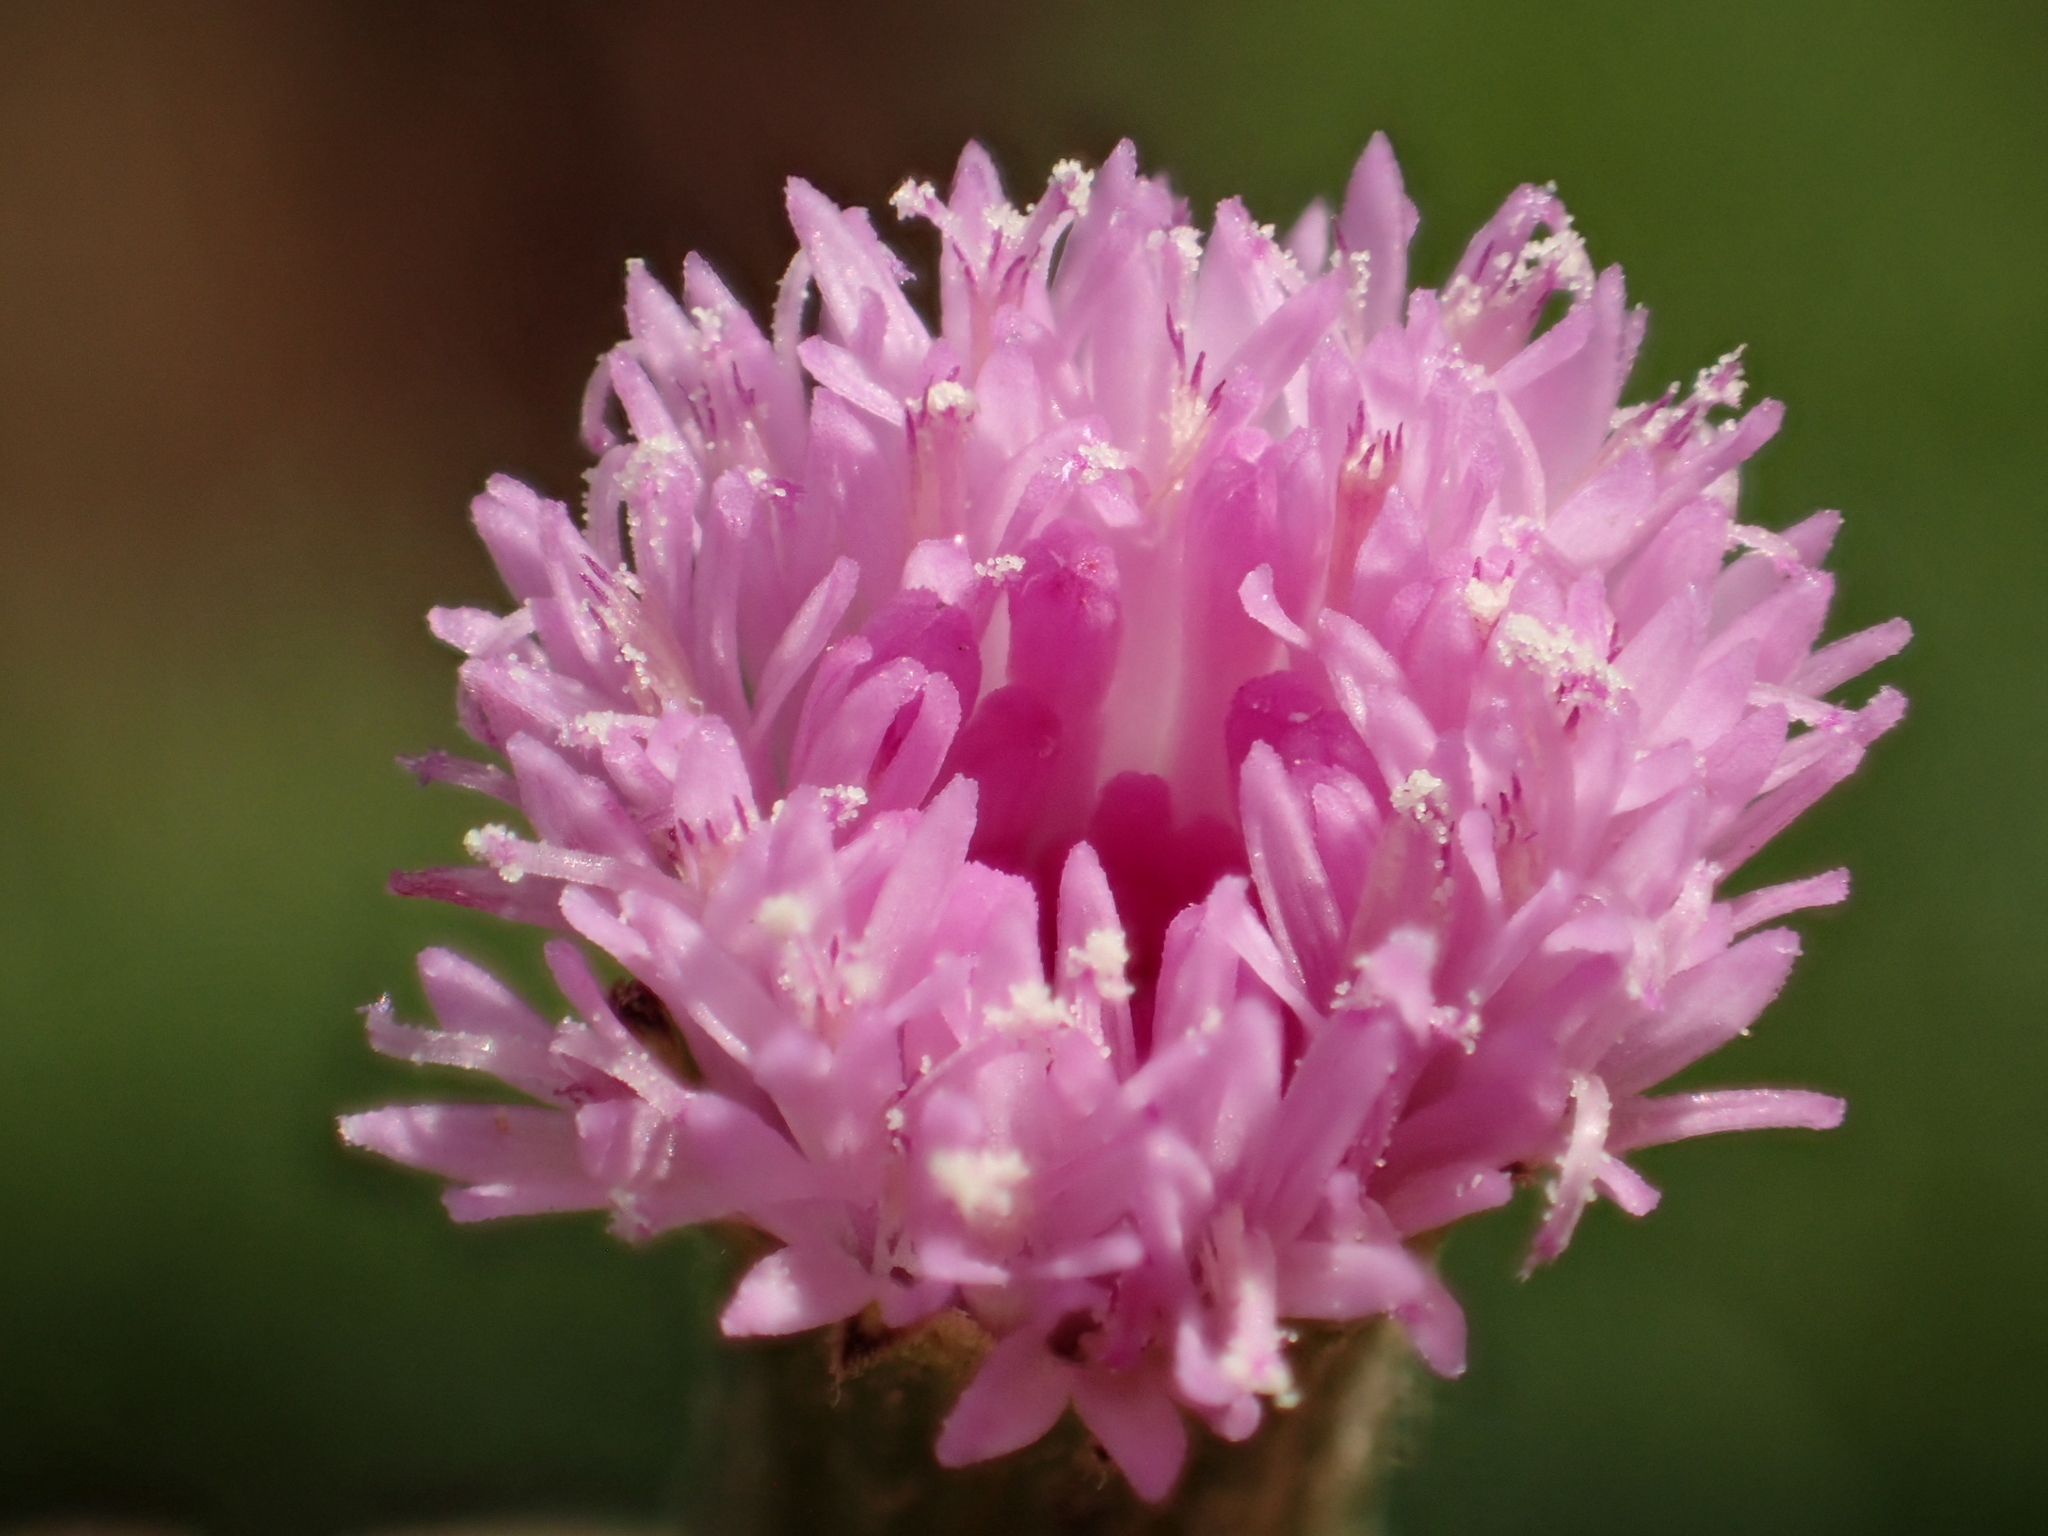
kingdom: Plantae
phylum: Tracheophyta
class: Magnoliopsida
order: Asterales
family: Asteraceae
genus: Emilia
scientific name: Emilia javanica
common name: Tassel-flower
